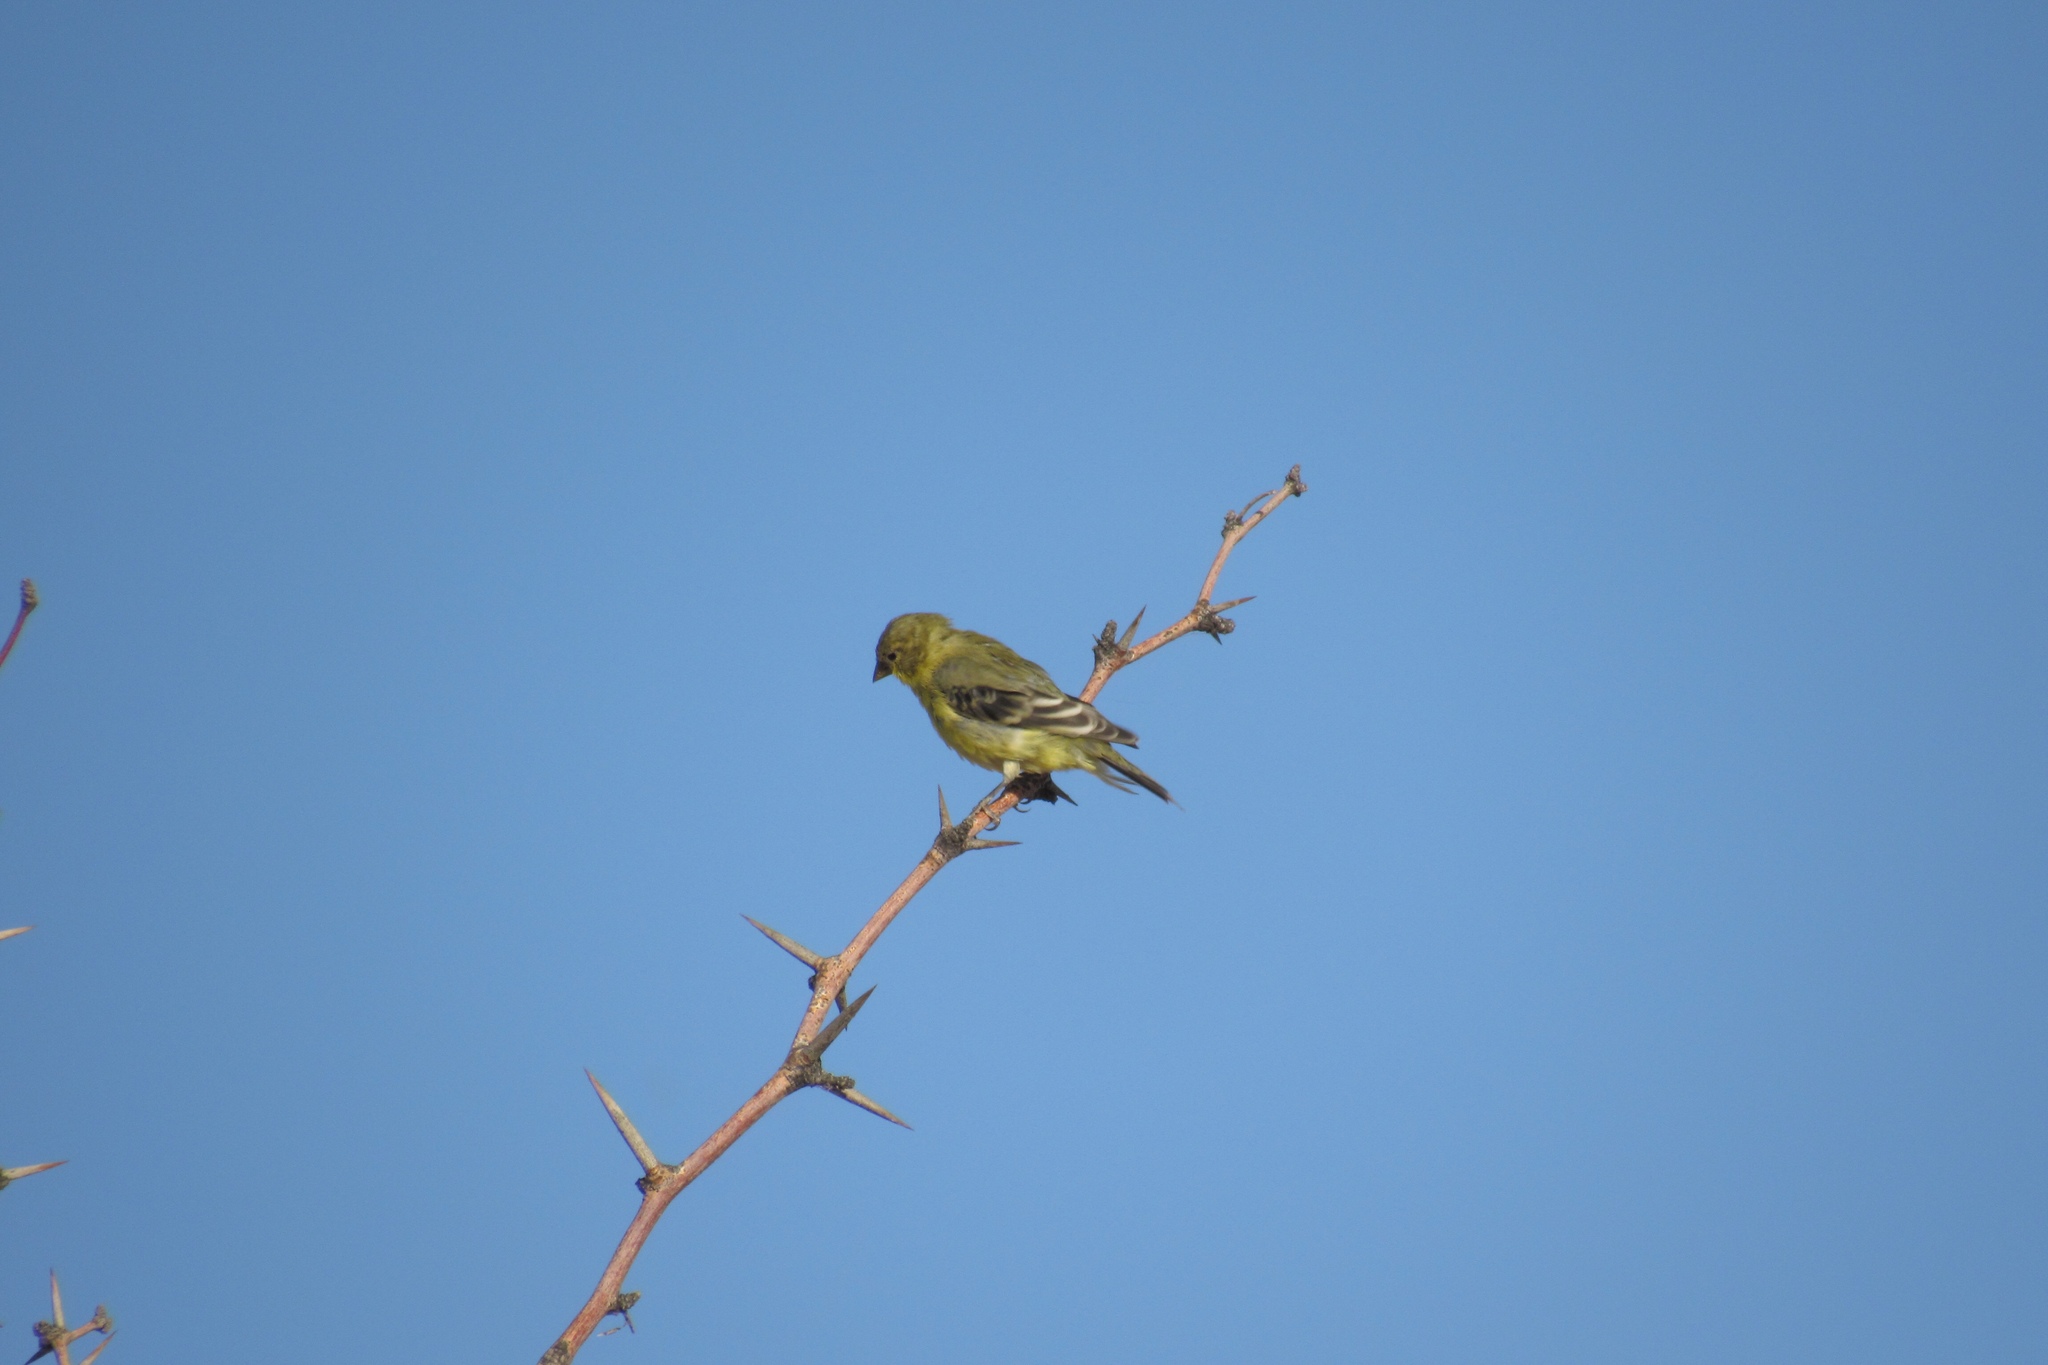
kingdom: Animalia
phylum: Chordata
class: Aves
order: Passeriformes
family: Fringillidae
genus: Spinus
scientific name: Spinus psaltria
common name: Lesser goldfinch
